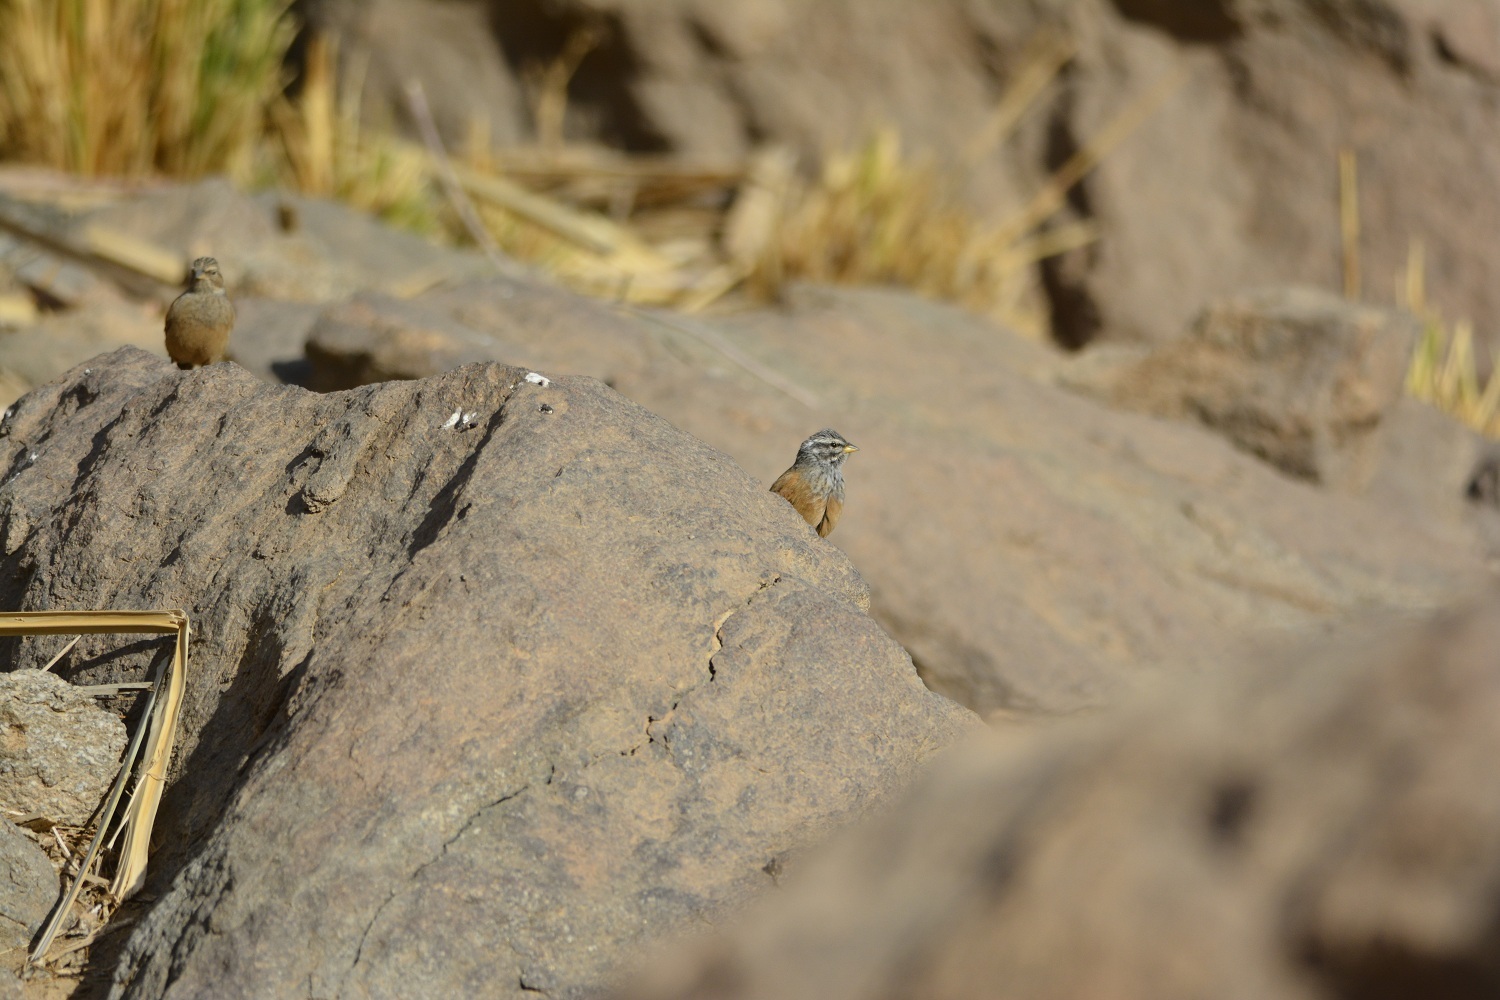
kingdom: Animalia
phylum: Chordata
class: Aves
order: Passeriformes
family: Emberizidae
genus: Emberiza
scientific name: Emberiza sahari
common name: House bunting
